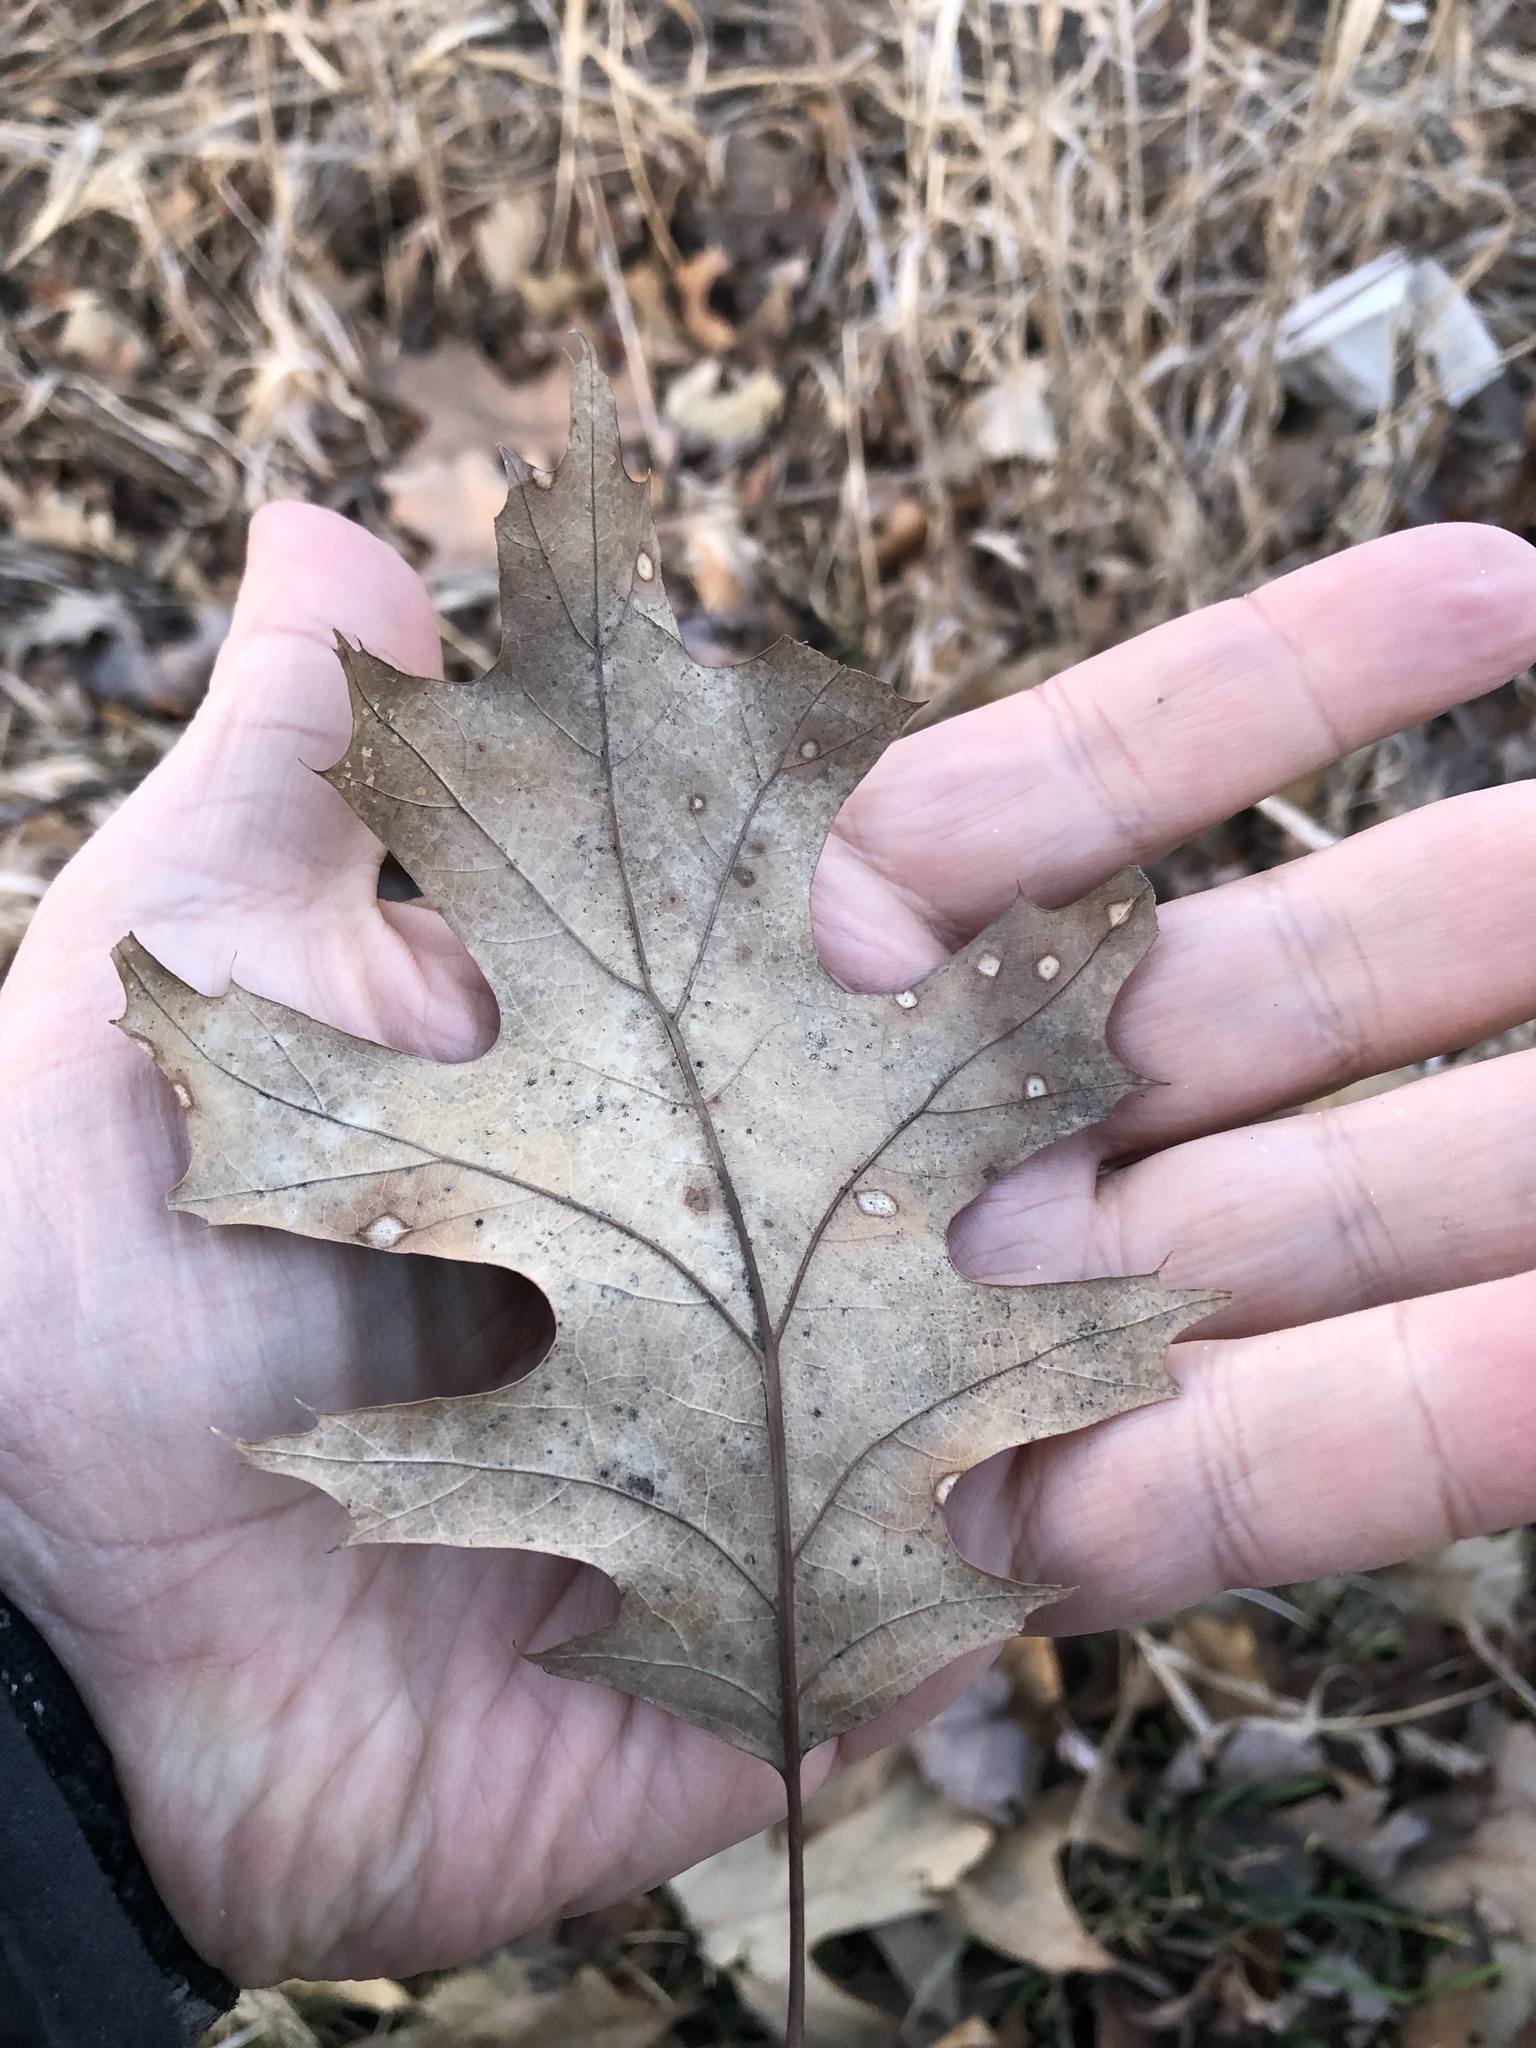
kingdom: Plantae
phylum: Tracheophyta
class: Magnoliopsida
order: Fagales
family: Fagaceae
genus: Quercus
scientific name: Quercus rubra
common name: Red oak
